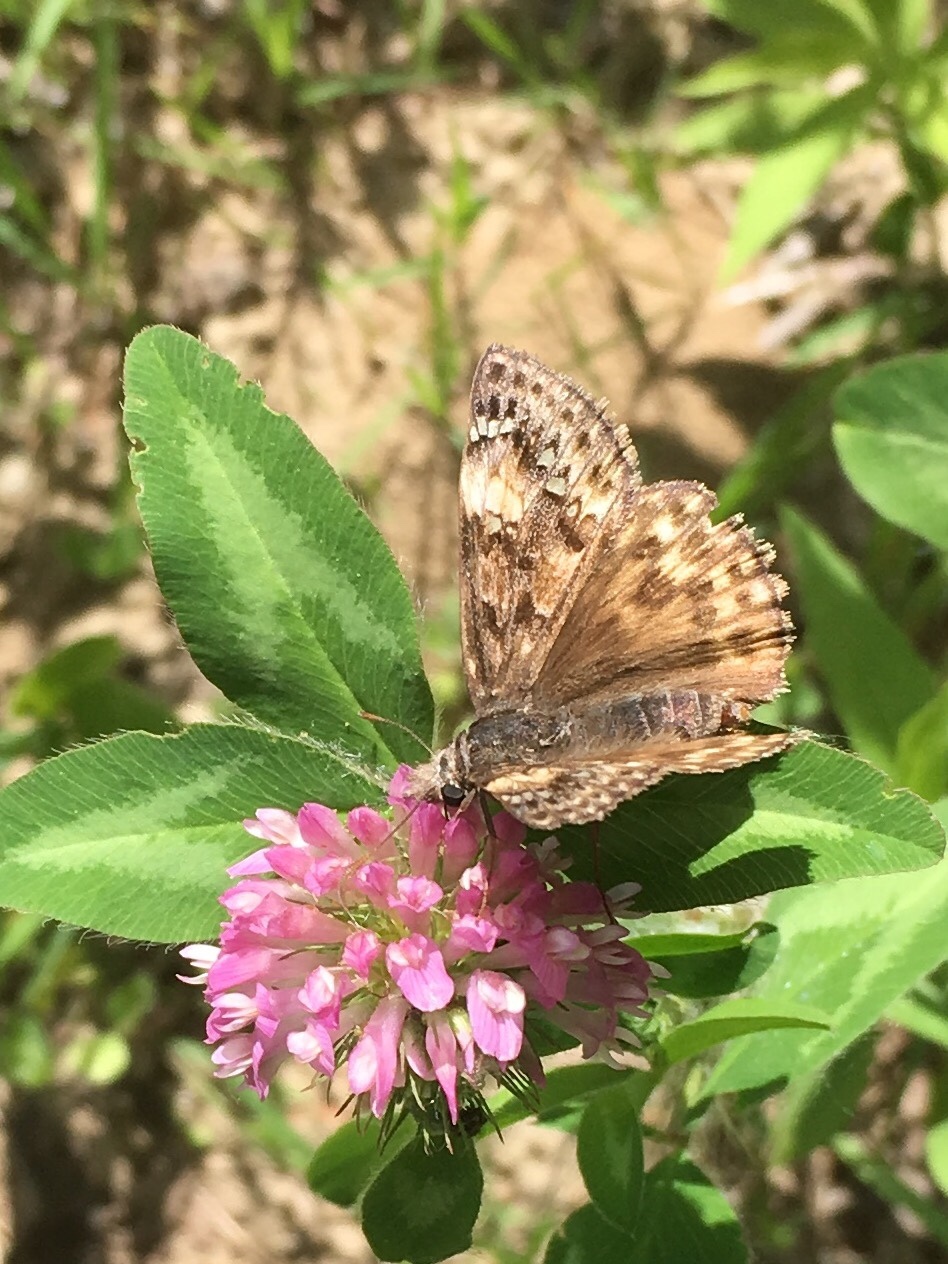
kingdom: Animalia
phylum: Arthropoda
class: Insecta
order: Lepidoptera
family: Hesperiidae
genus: Erynnis
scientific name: Erynnis juvenalis
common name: Juvenal's duskywing
